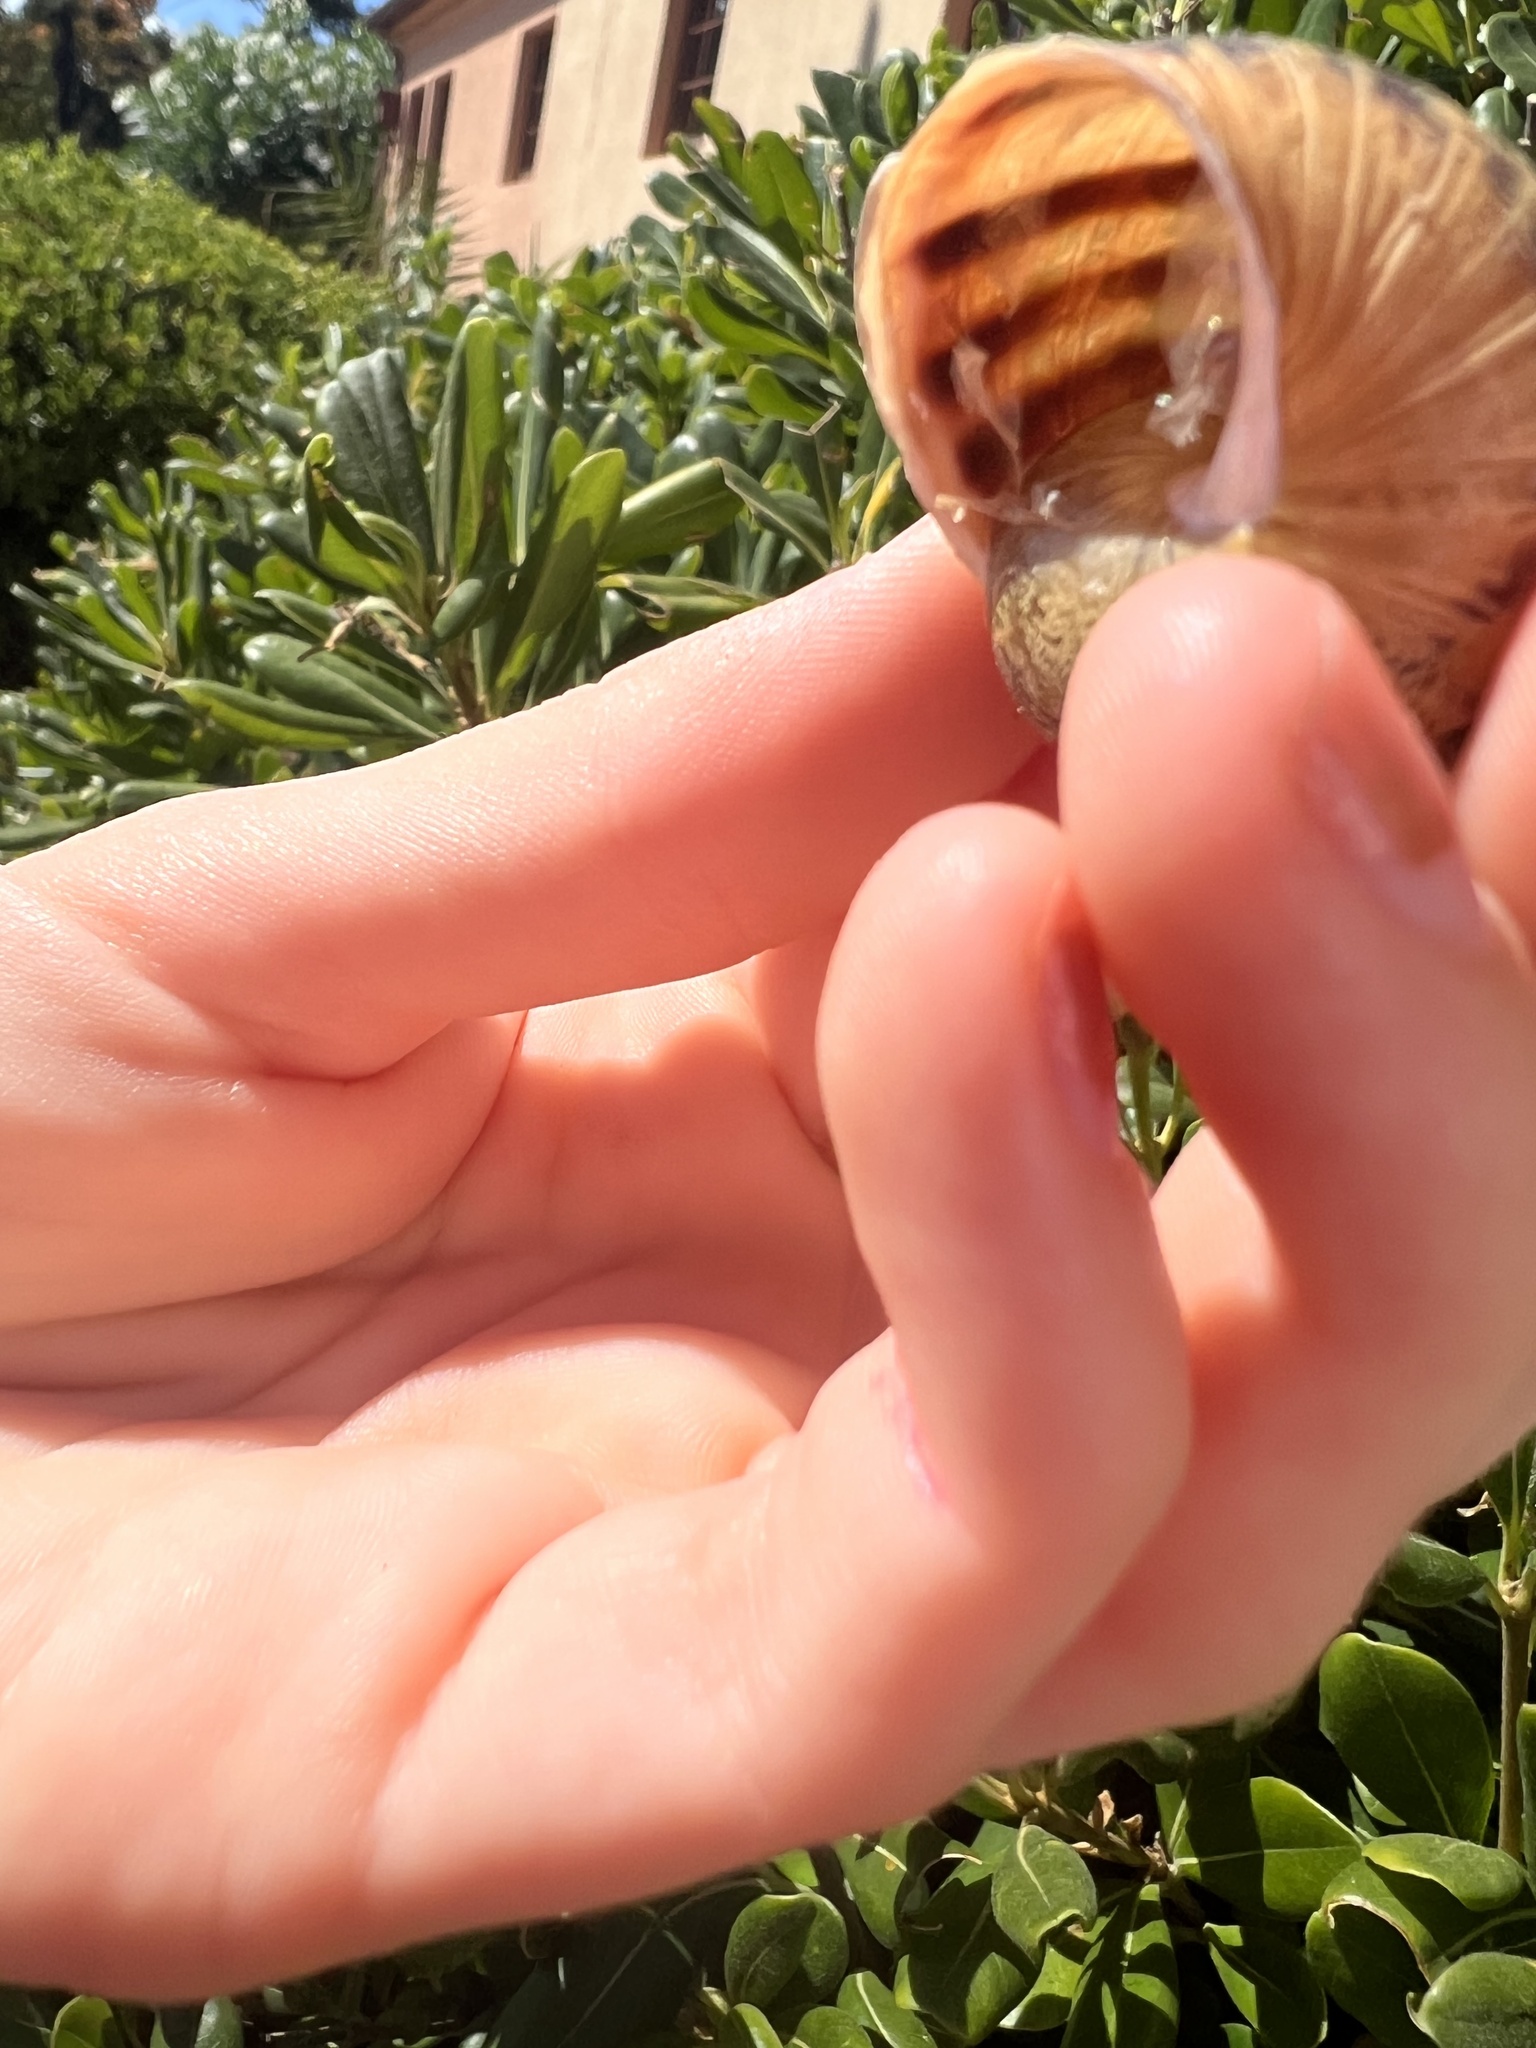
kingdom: Animalia
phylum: Mollusca
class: Gastropoda
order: Stylommatophora
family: Helicidae
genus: Cornu
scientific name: Cornu aspersum
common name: Brown garden snail
